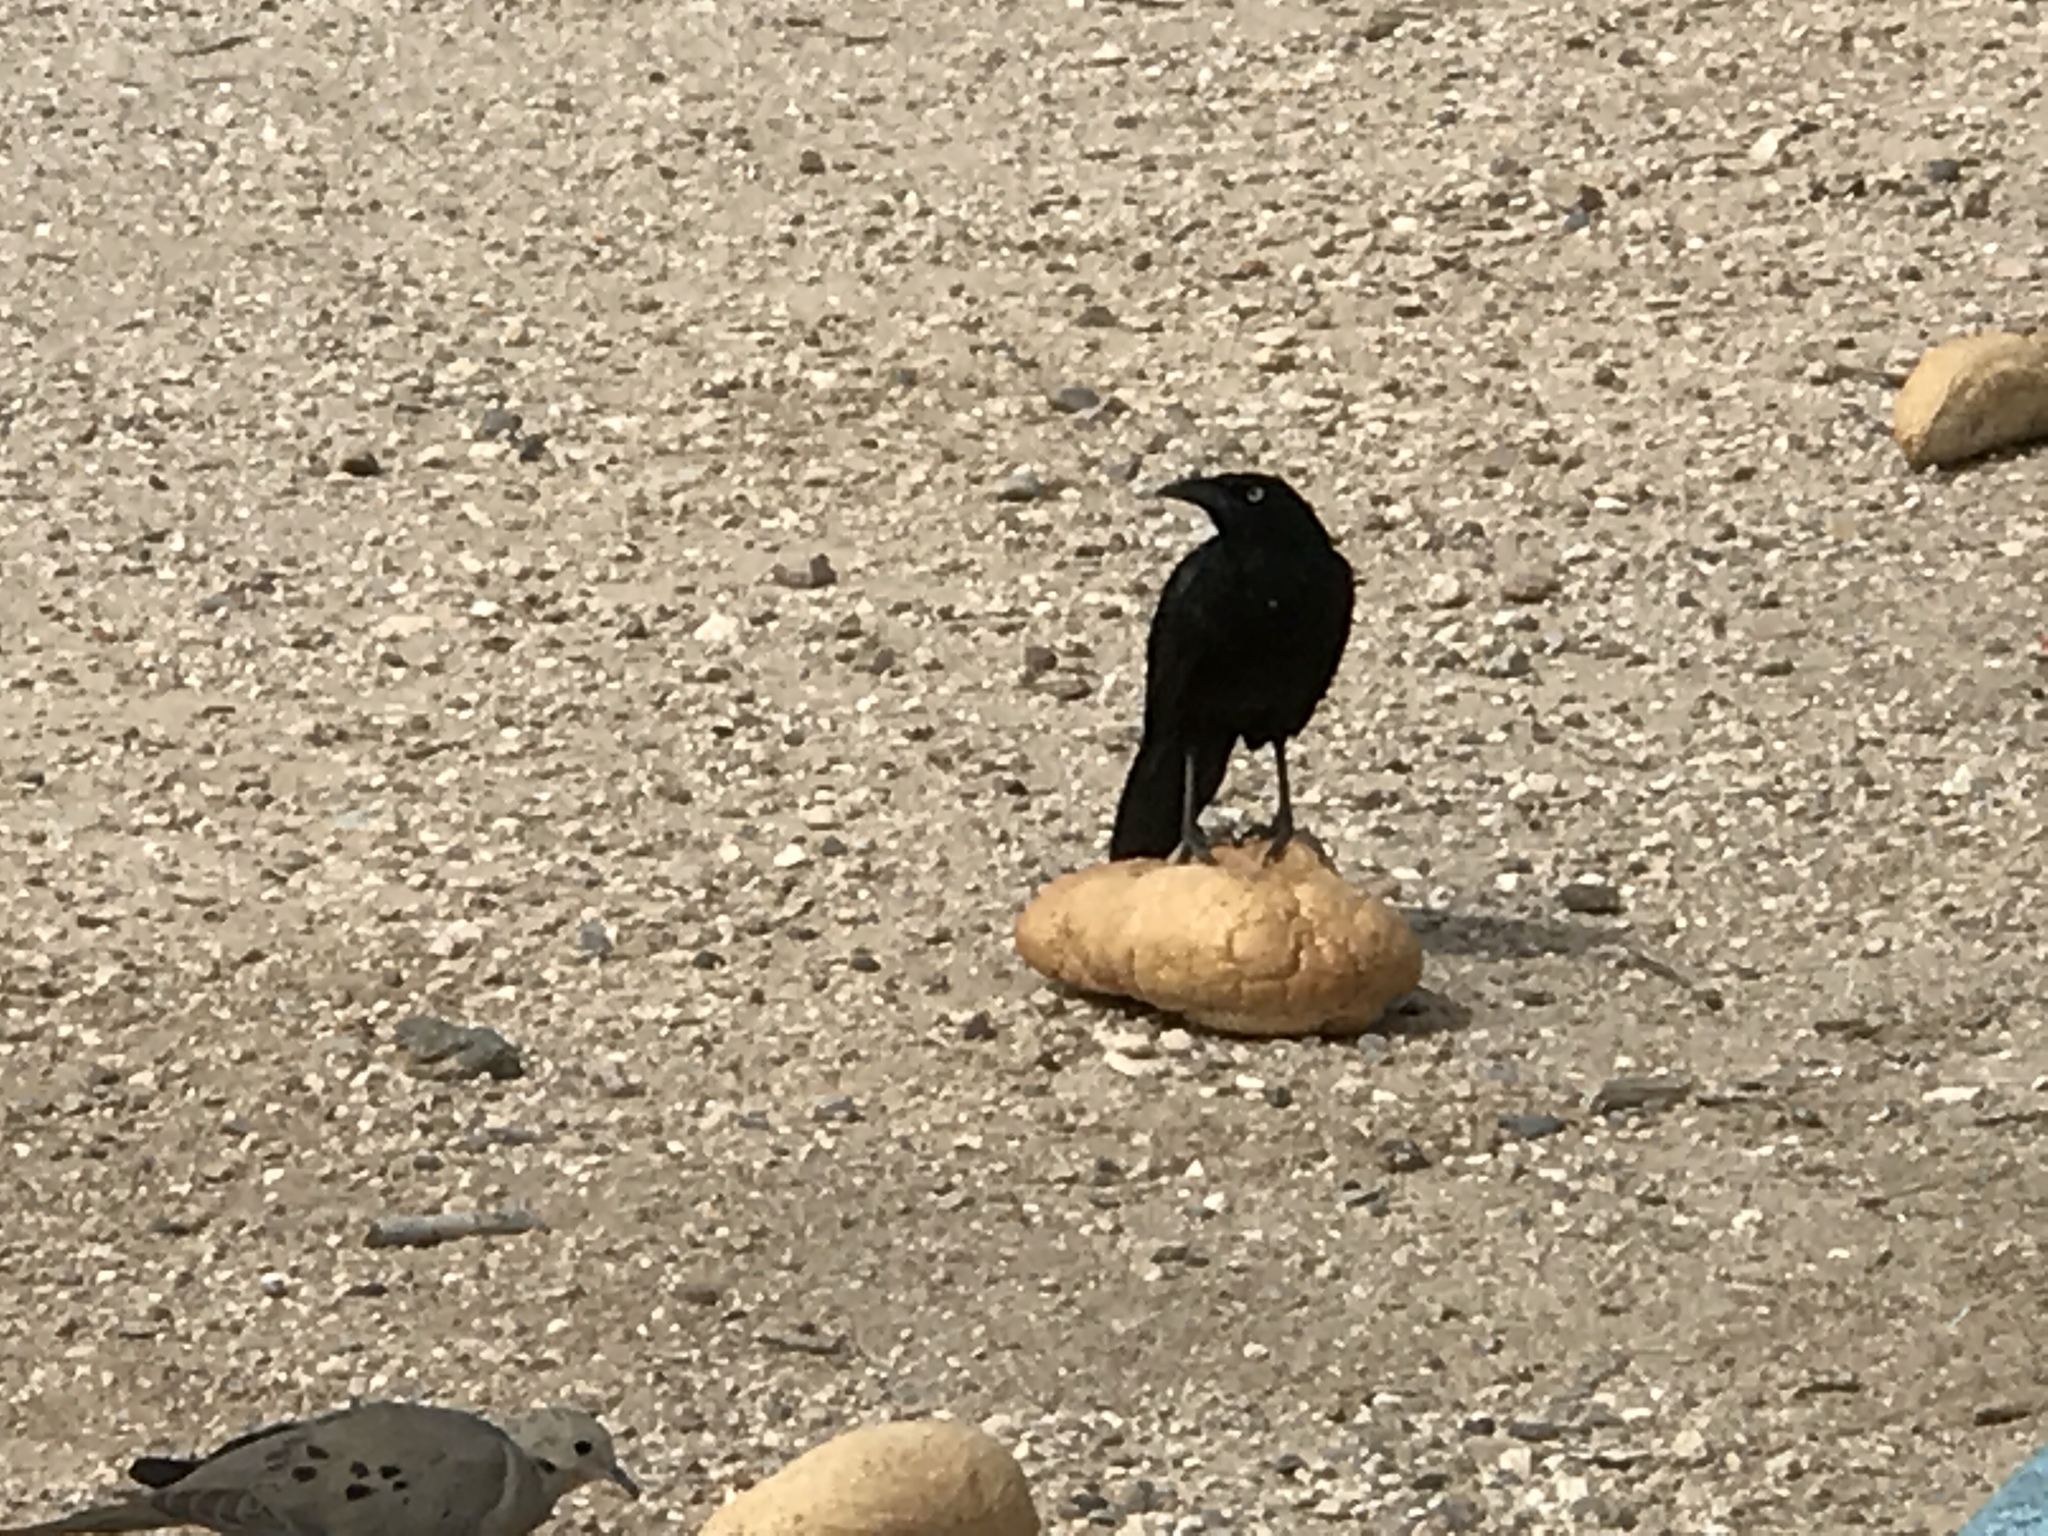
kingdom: Animalia
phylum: Chordata
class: Aves
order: Passeriformes
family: Icteridae
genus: Quiscalus
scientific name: Quiscalus mexicanus
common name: Great-tailed grackle
